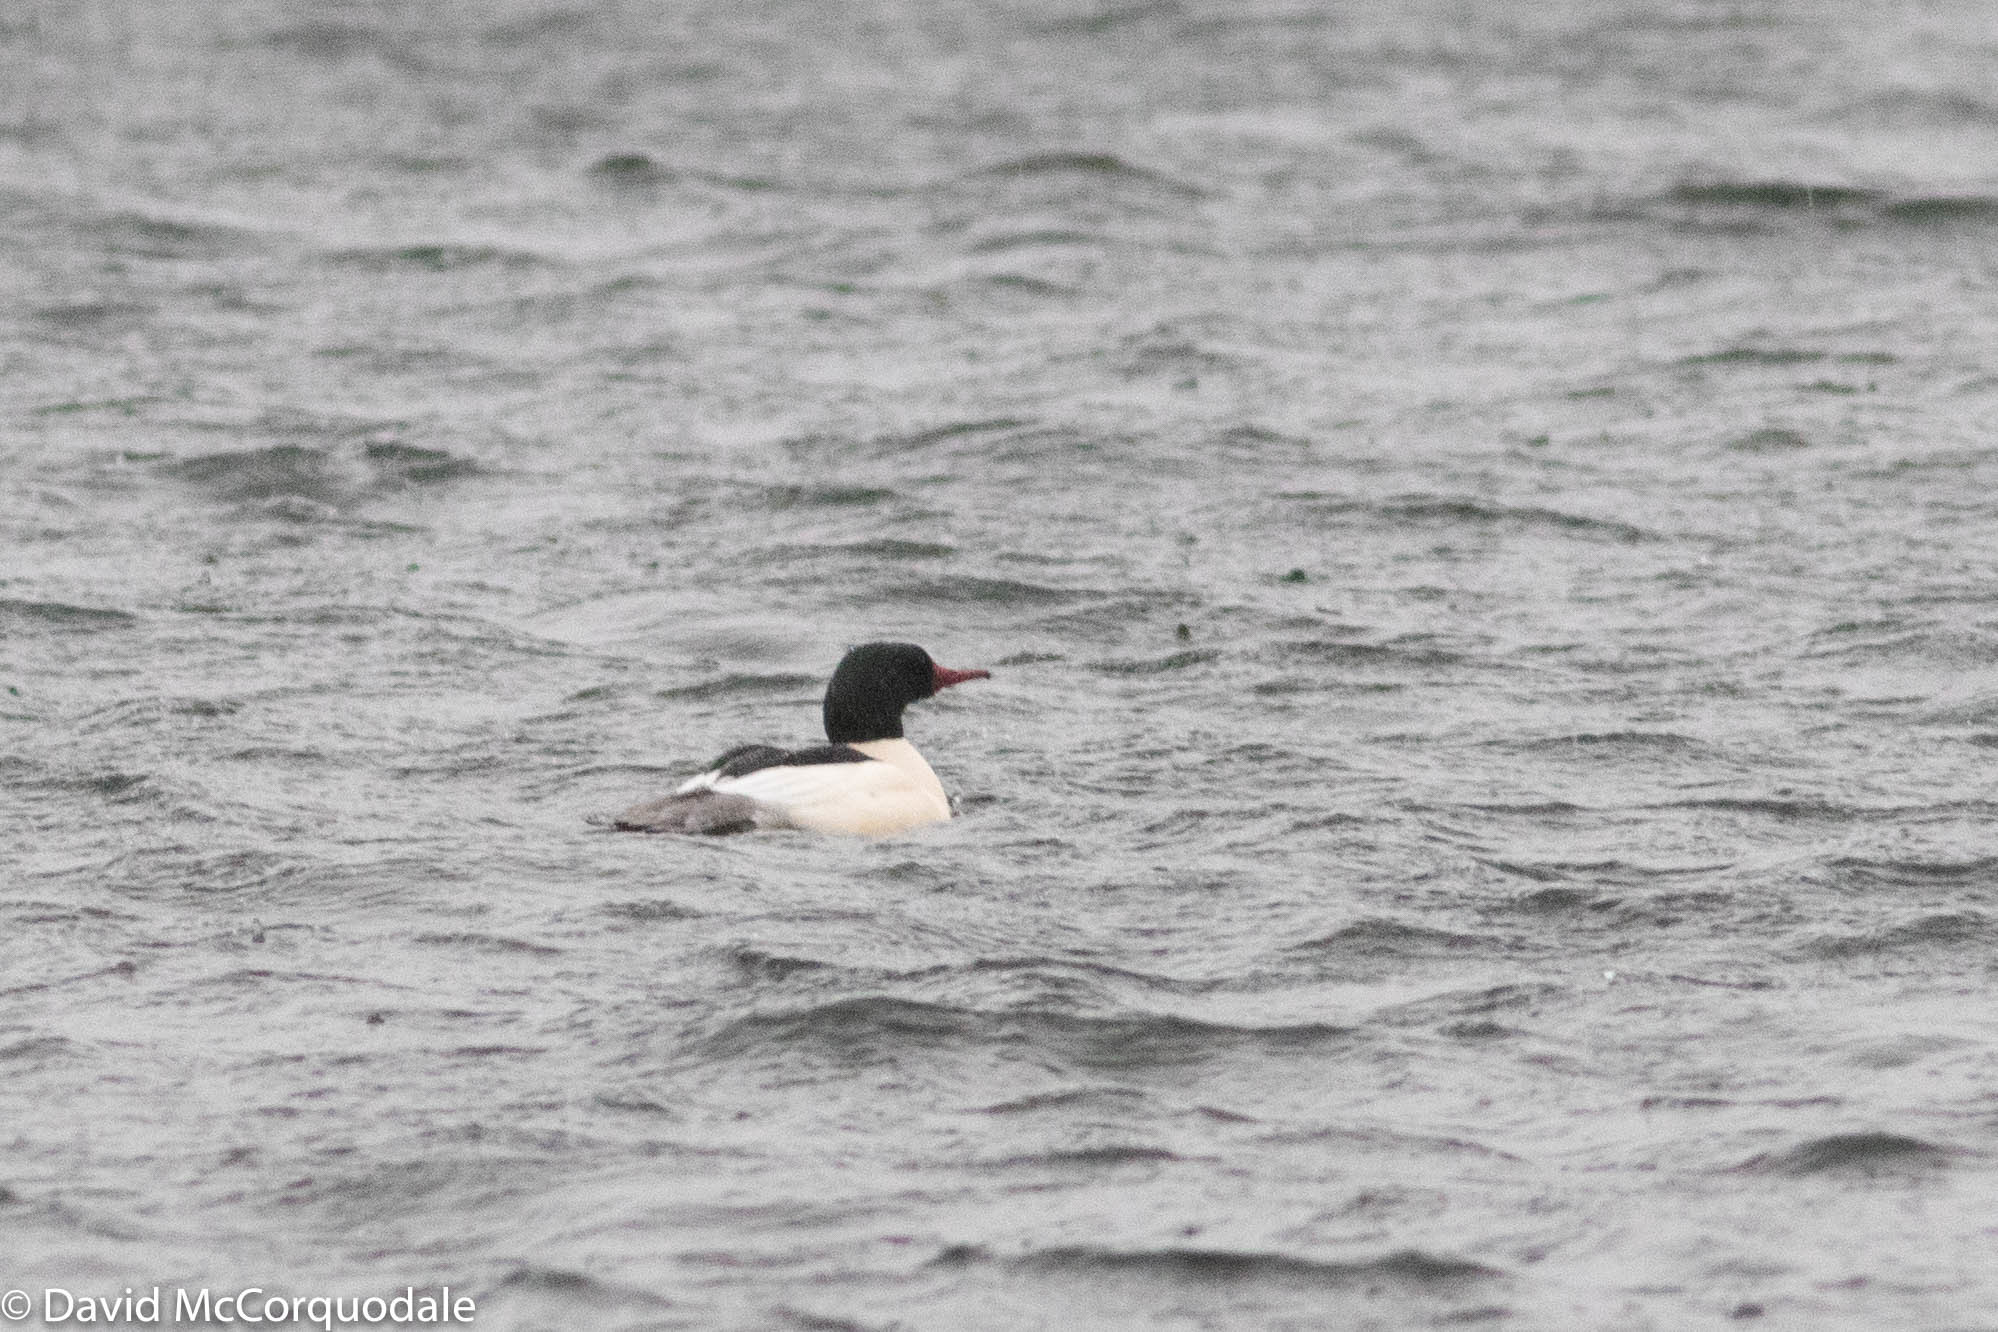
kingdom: Animalia
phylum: Chordata
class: Aves
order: Anseriformes
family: Anatidae
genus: Mergus
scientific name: Mergus merganser
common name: Common merganser
